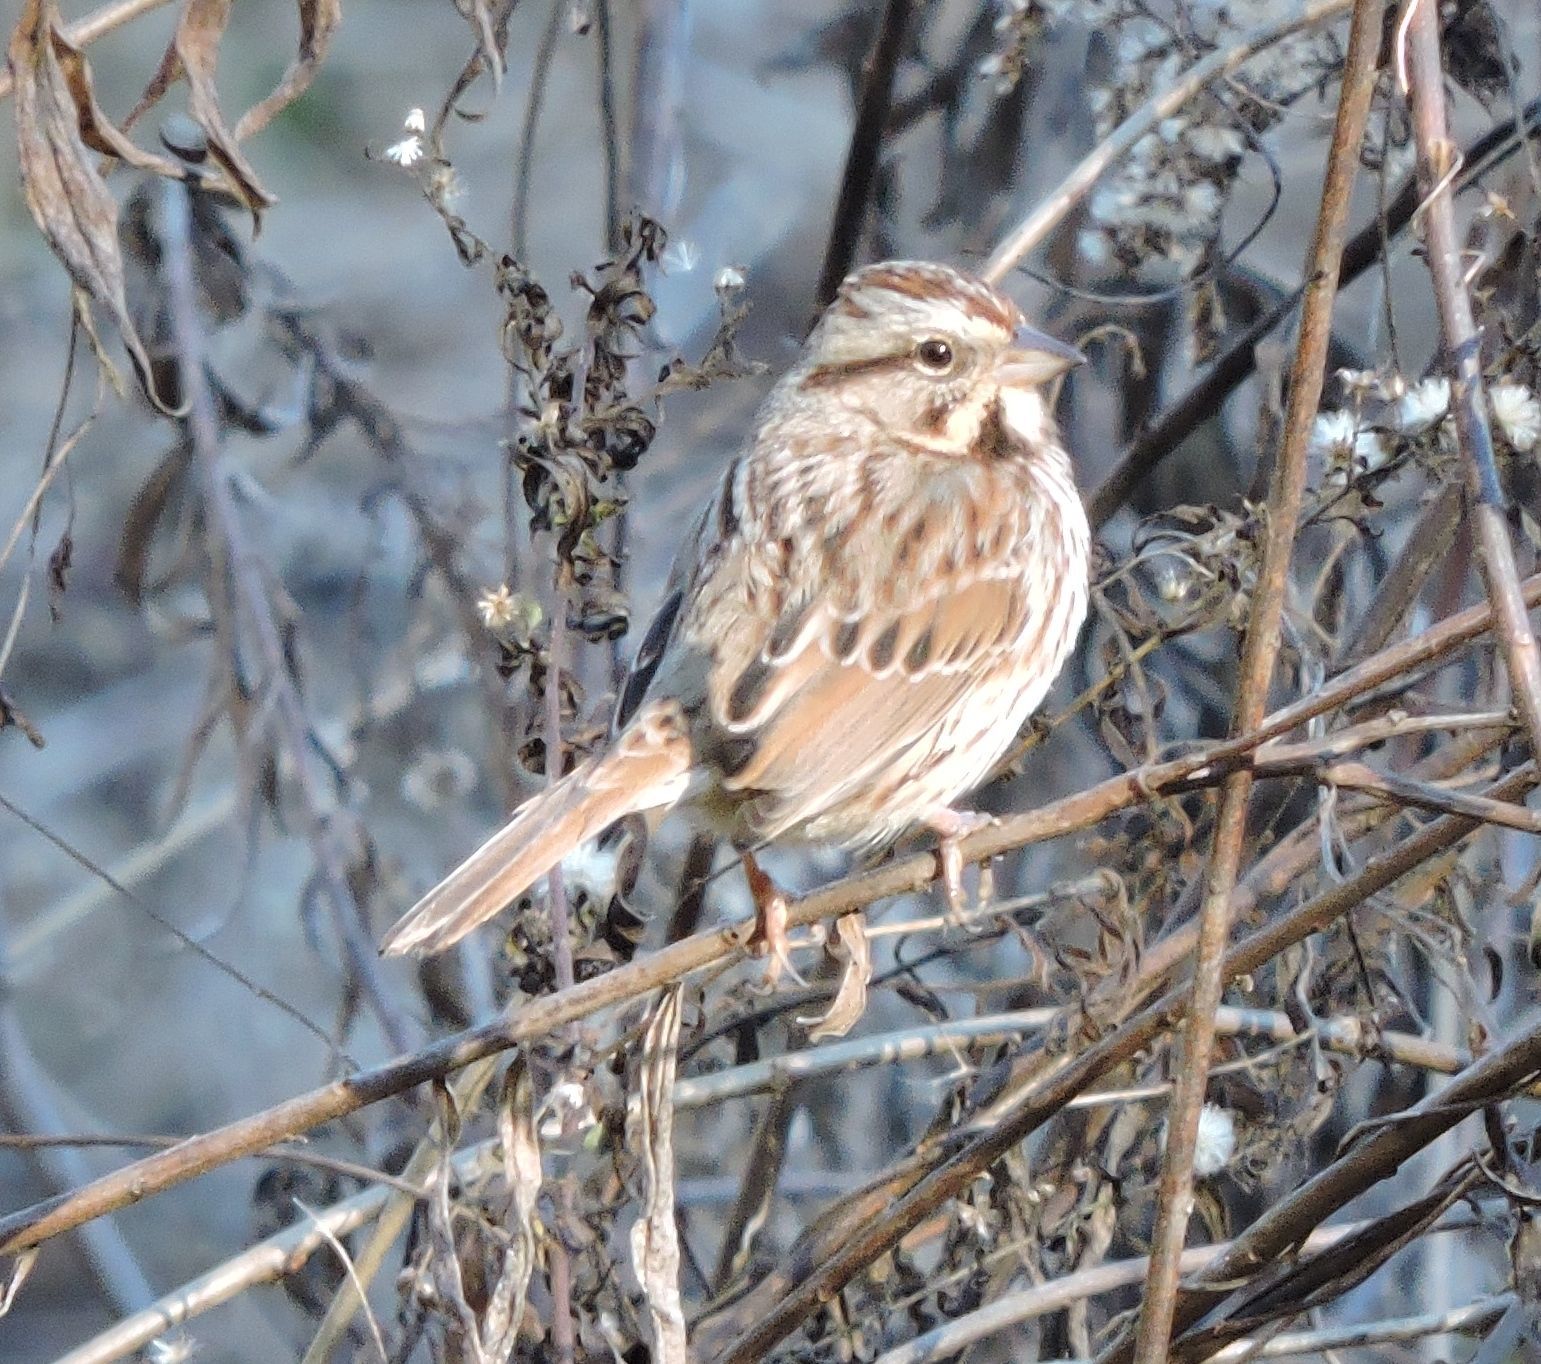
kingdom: Animalia
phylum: Chordata
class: Aves
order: Passeriformes
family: Passerellidae
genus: Melospiza
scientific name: Melospiza melodia
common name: Song sparrow
